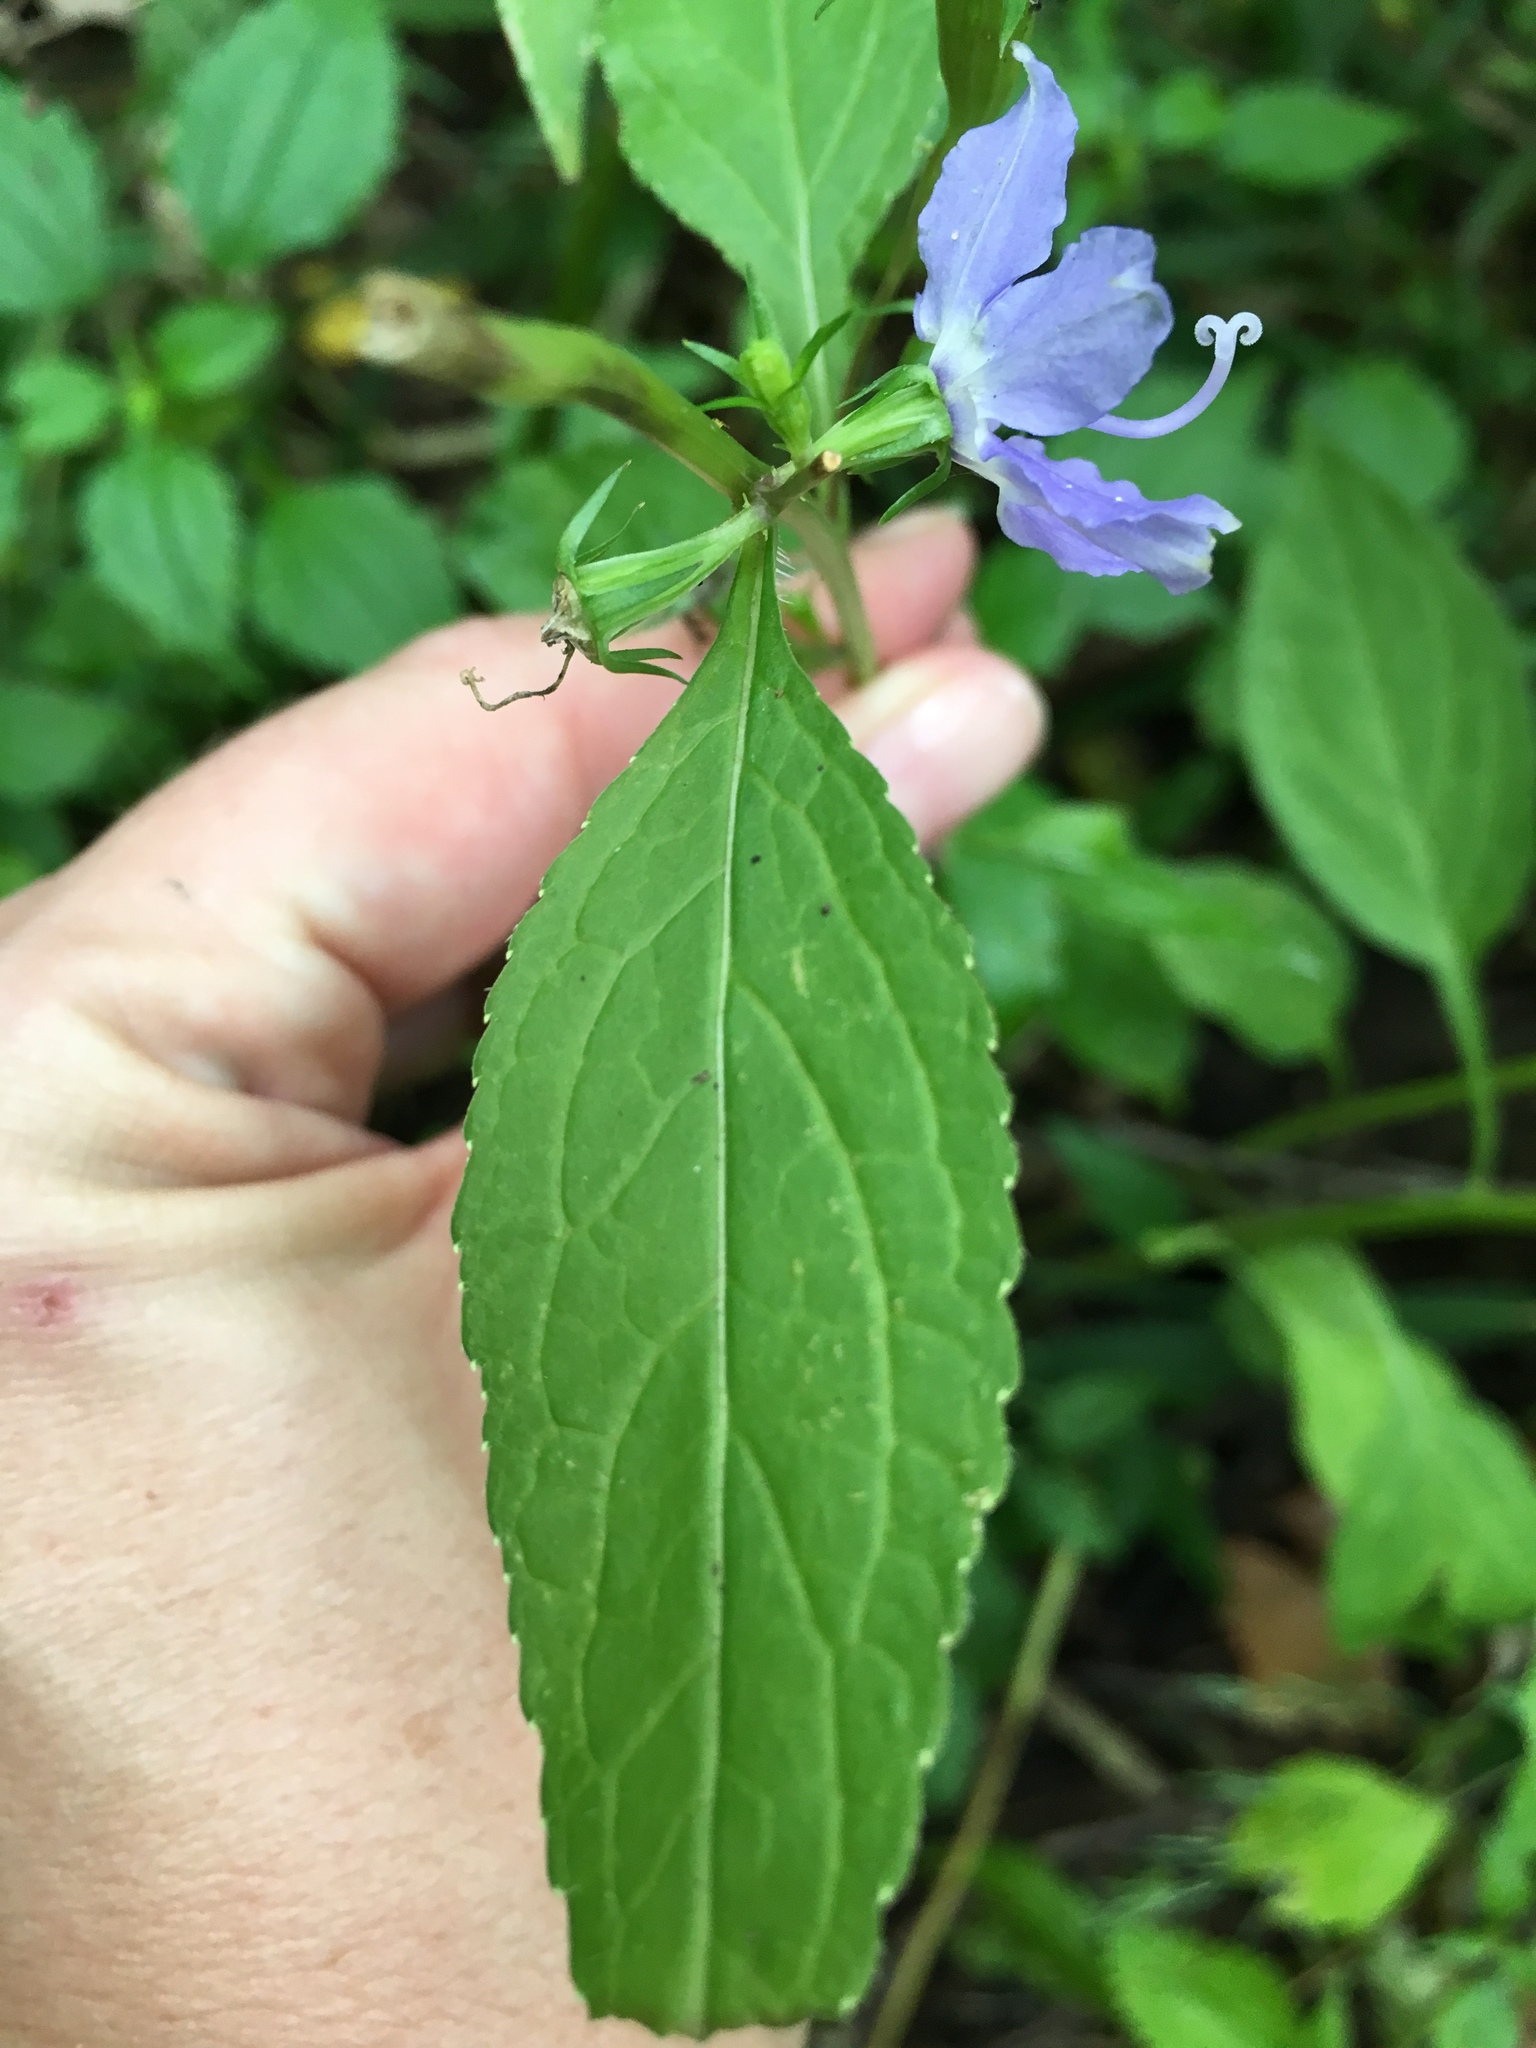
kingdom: Plantae
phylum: Tracheophyta
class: Magnoliopsida
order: Asterales
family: Campanulaceae
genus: Campanulastrum
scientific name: Campanulastrum americanum
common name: American bellflower
